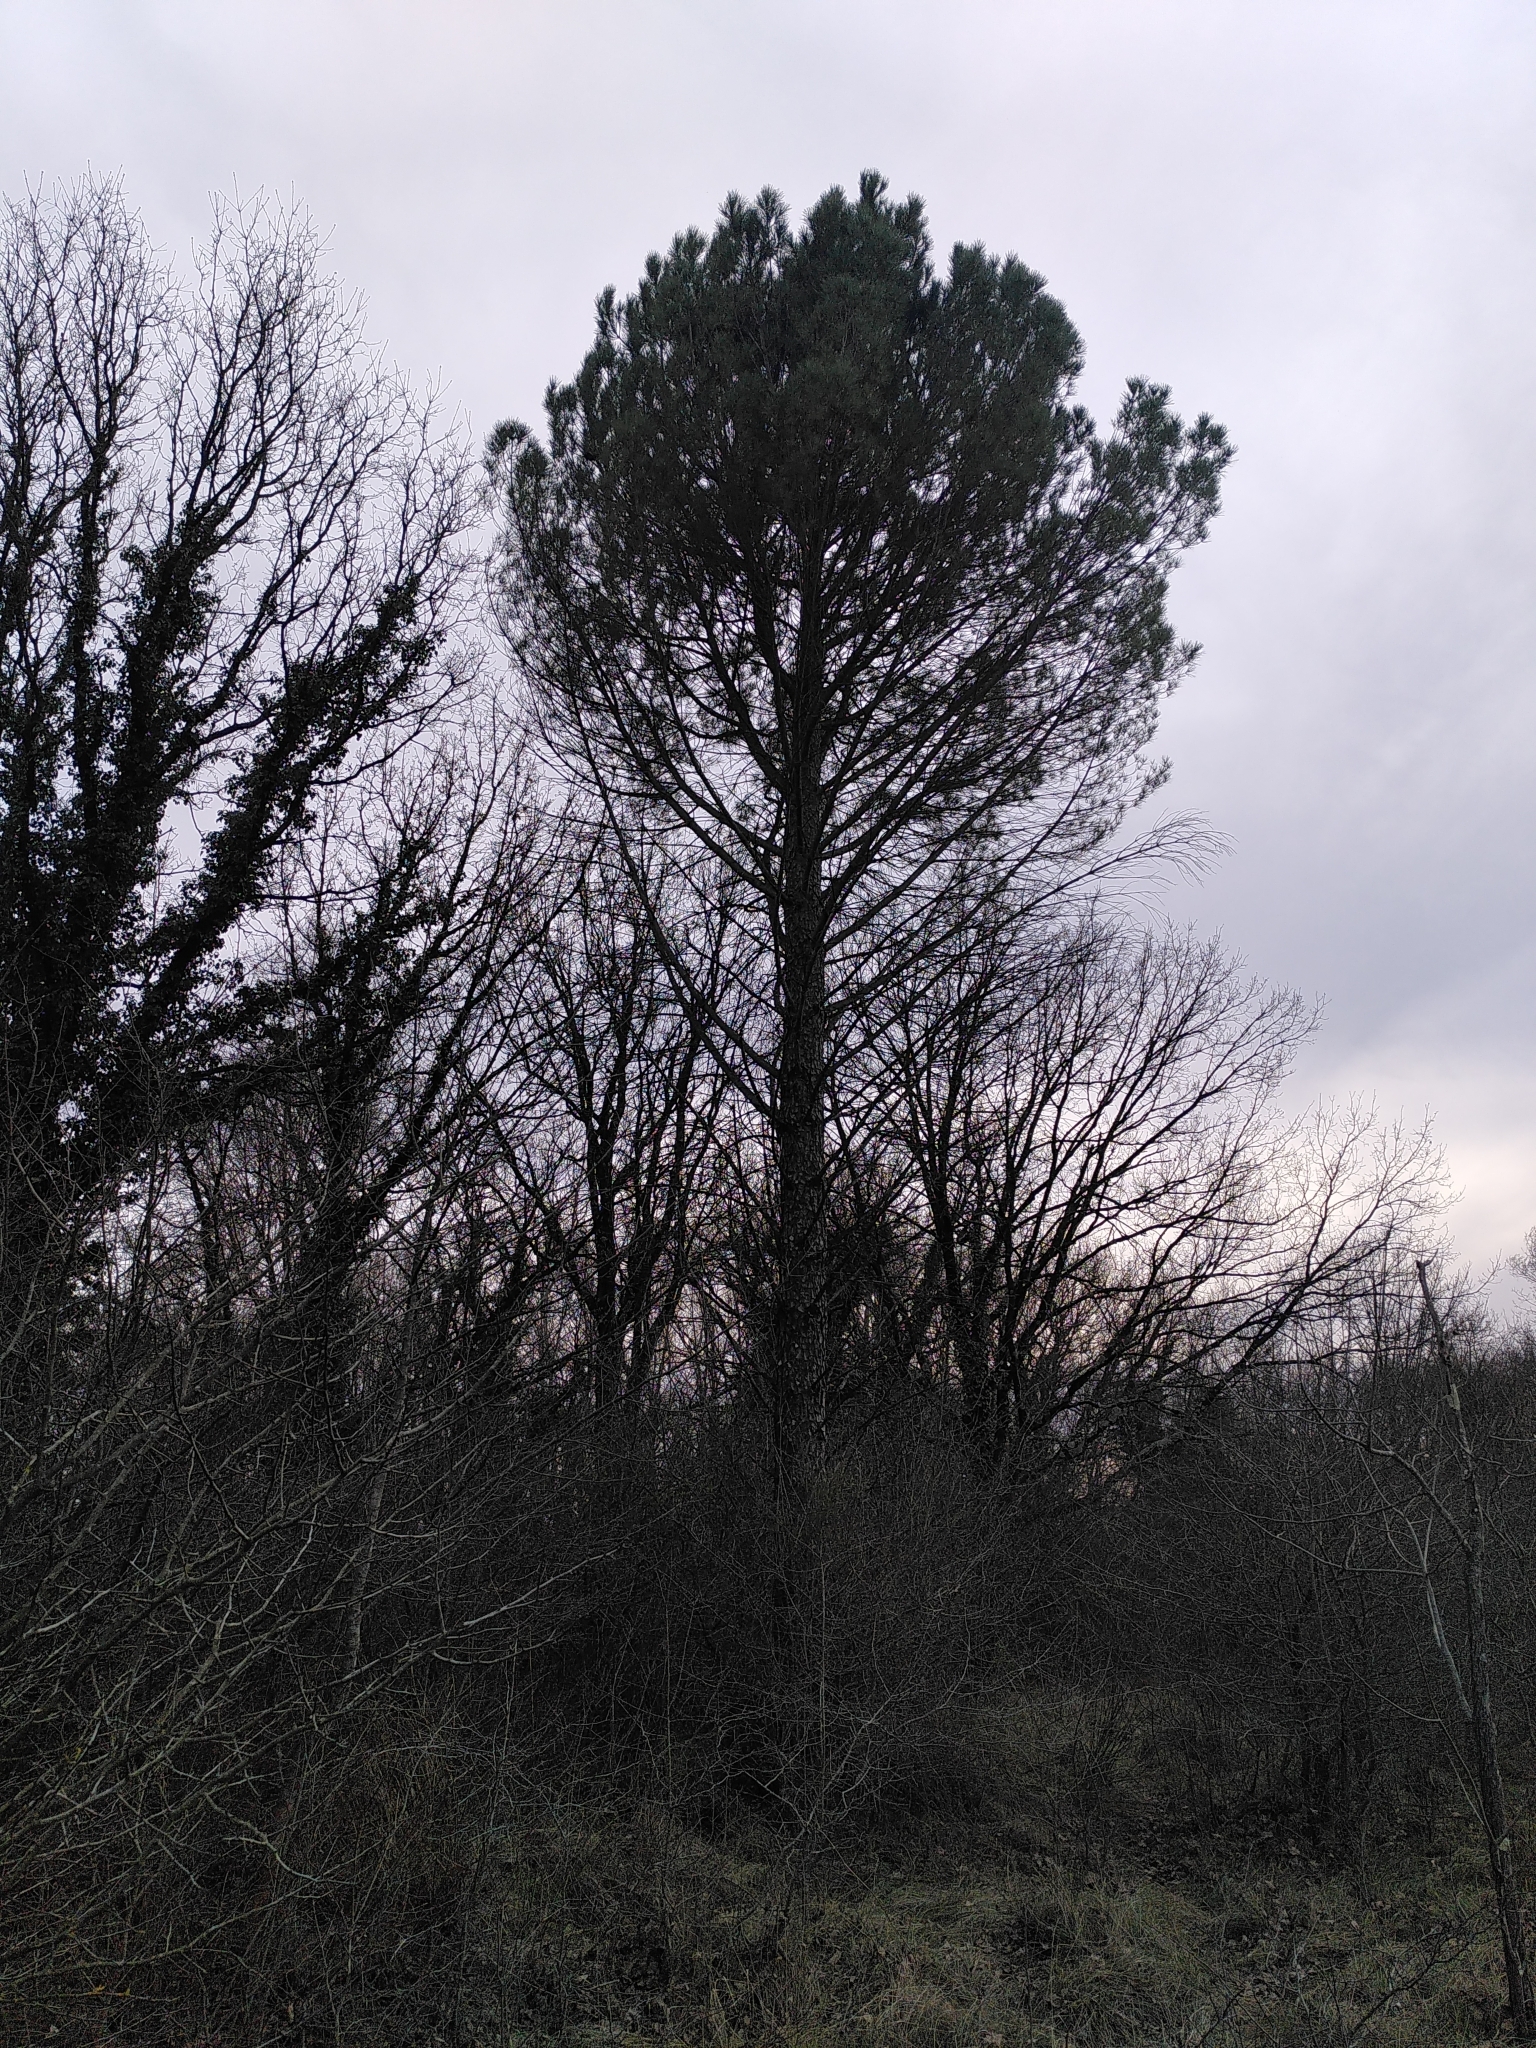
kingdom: Plantae
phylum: Tracheophyta
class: Pinopsida
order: Pinales
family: Pinaceae
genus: Pinus
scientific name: Pinus pinea
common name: Italian stone pine
